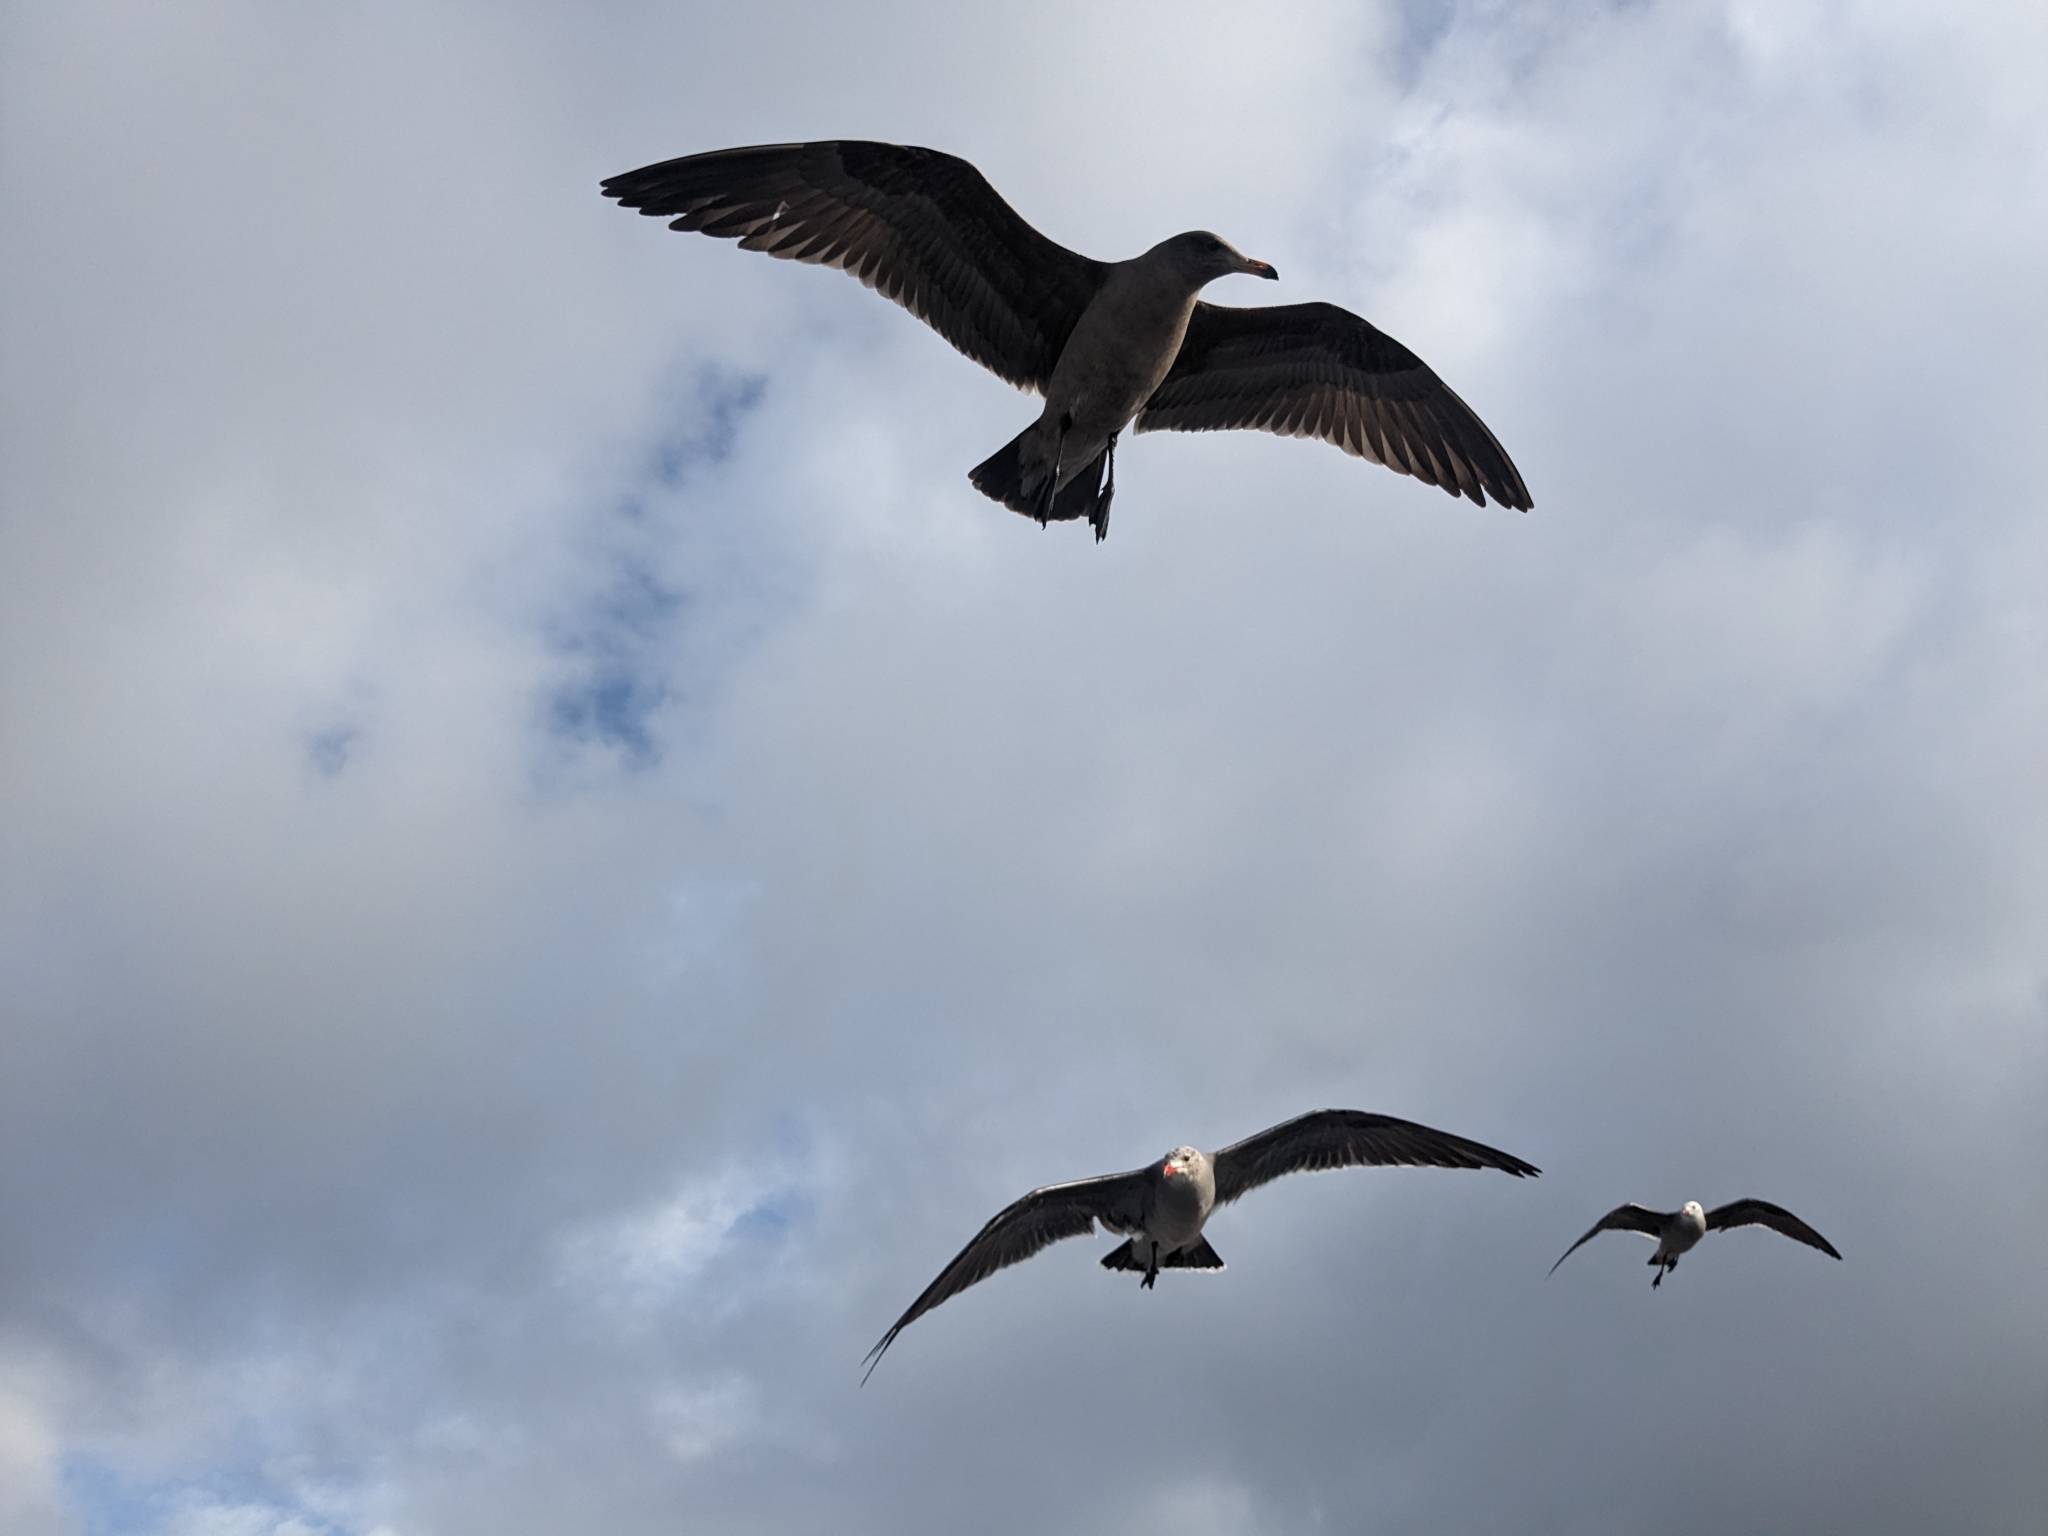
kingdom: Animalia
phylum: Chordata
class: Aves
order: Charadriiformes
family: Laridae
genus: Larus
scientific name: Larus heermanni
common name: Heermann's gull
